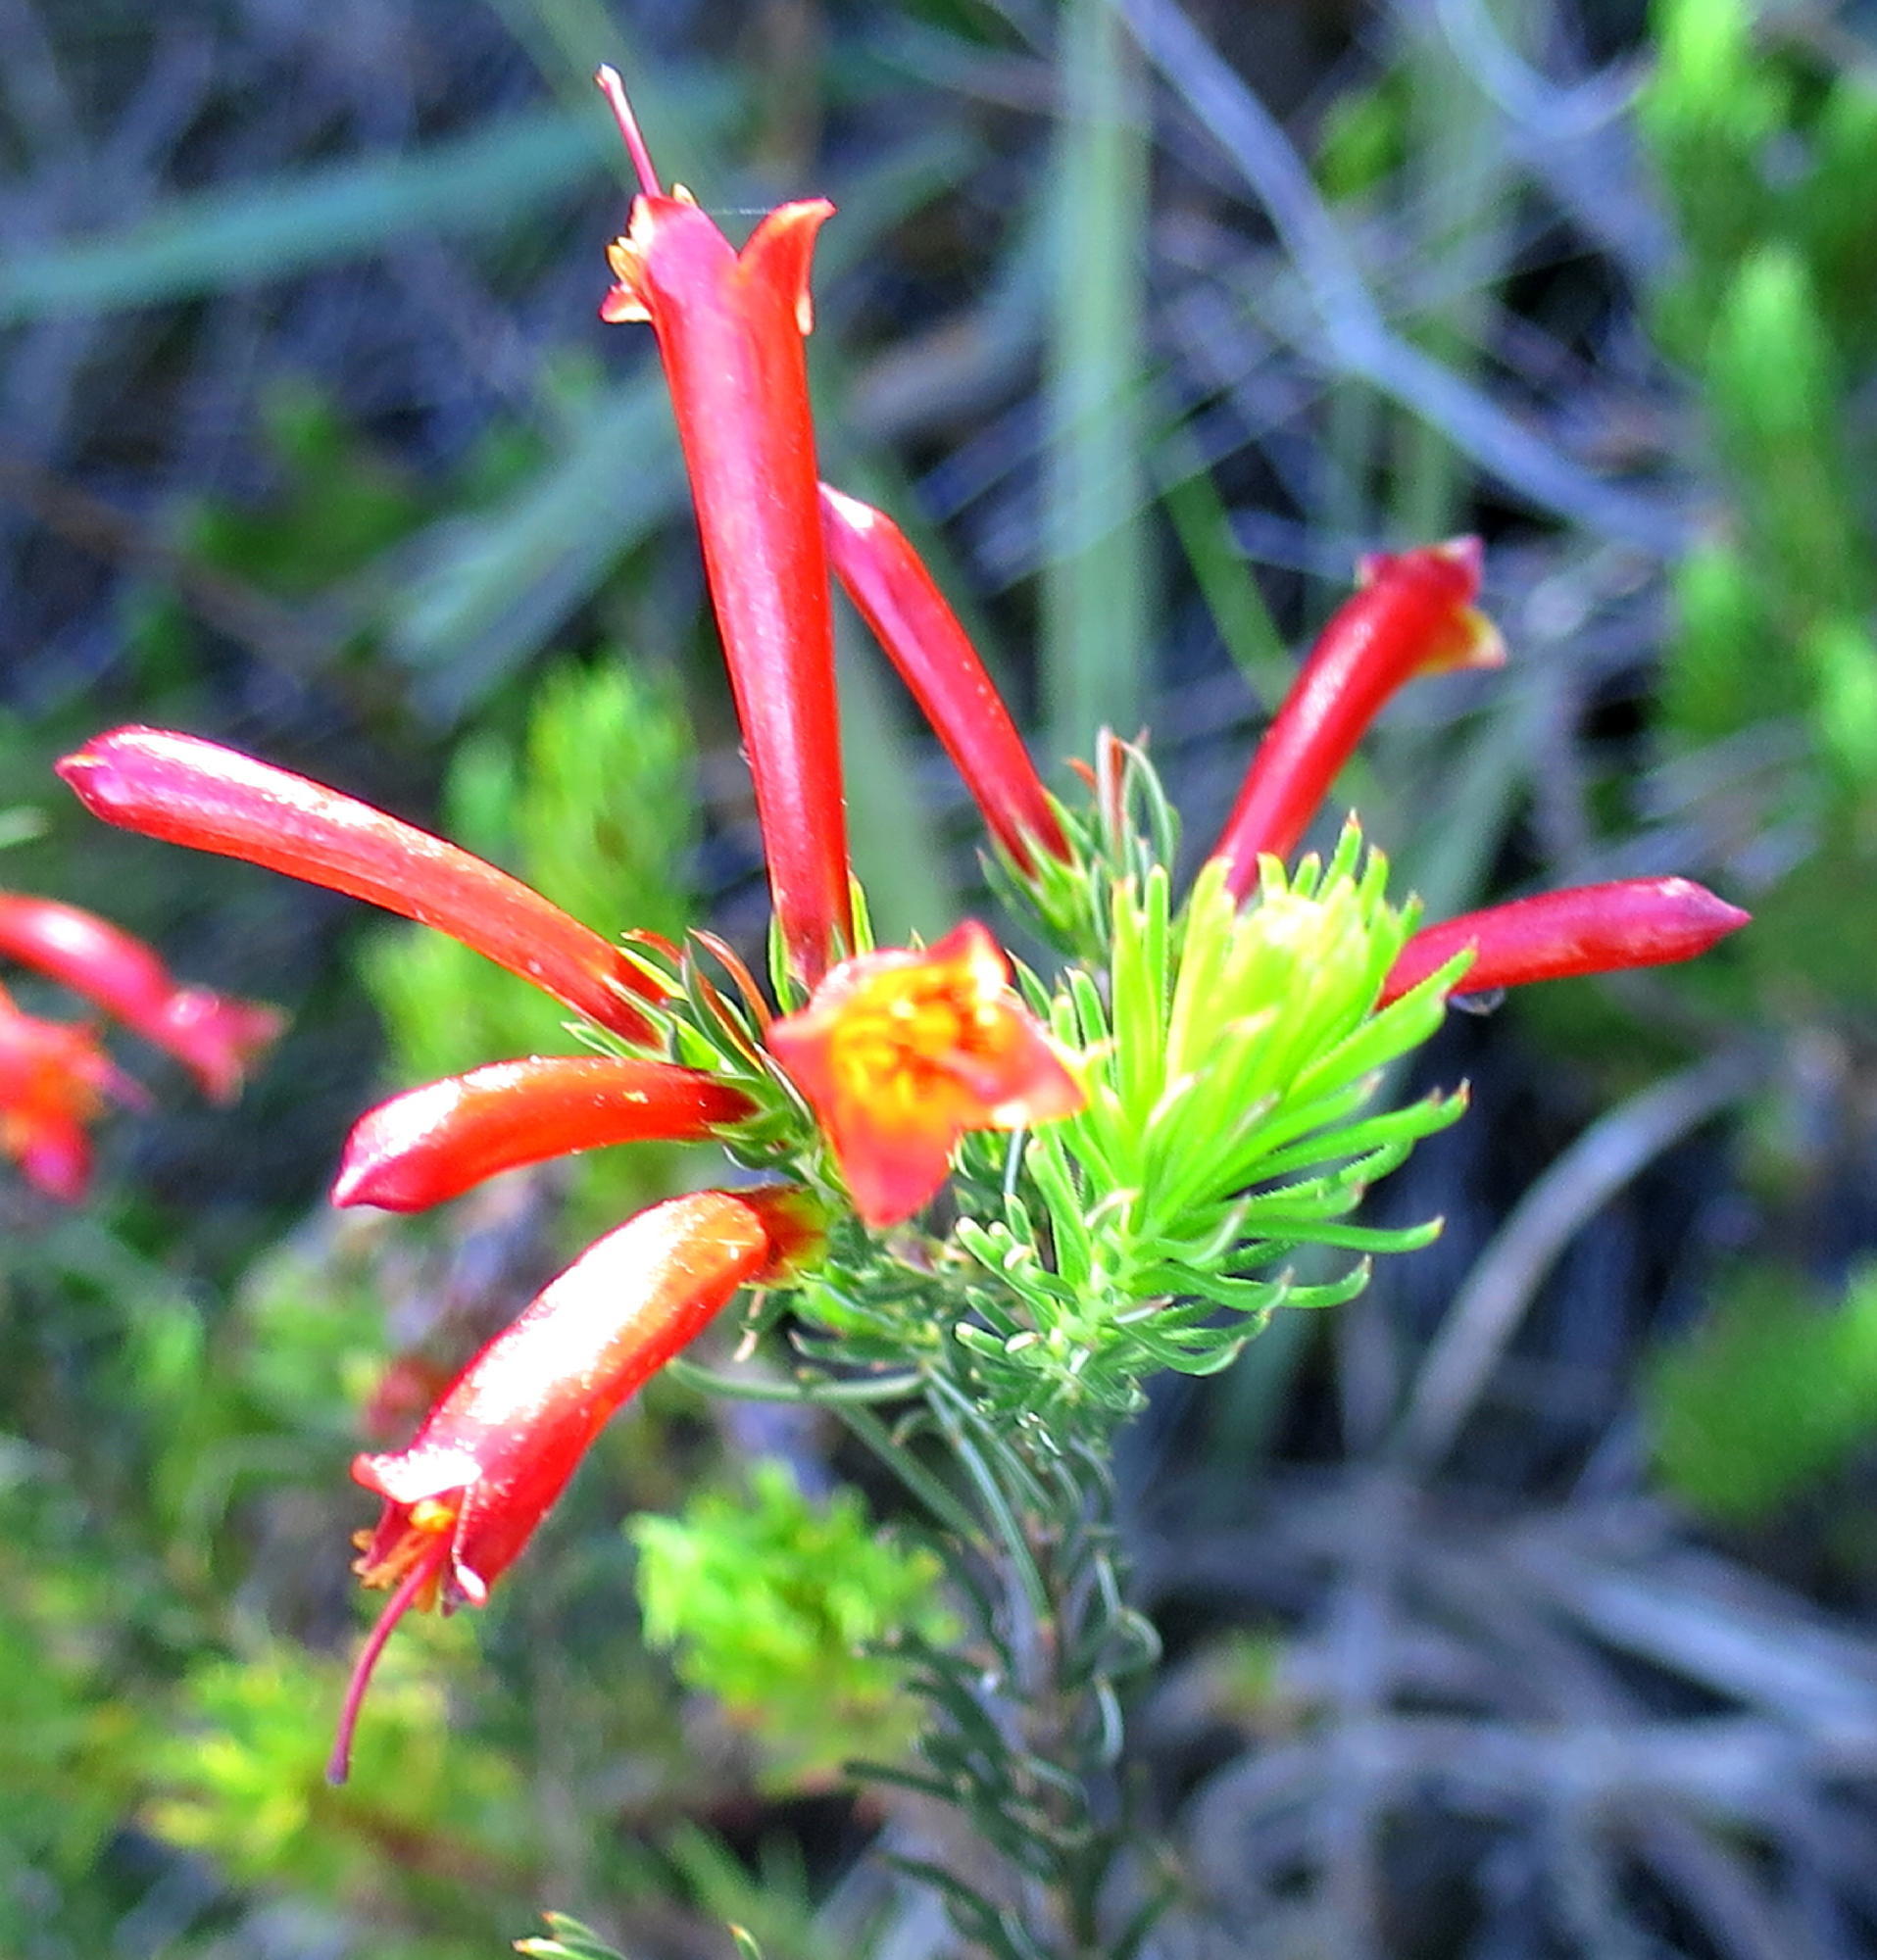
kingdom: Plantae
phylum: Tracheophyta
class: Magnoliopsida
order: Ericales
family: Ericaceae
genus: Erica
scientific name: Erica grandiflora
